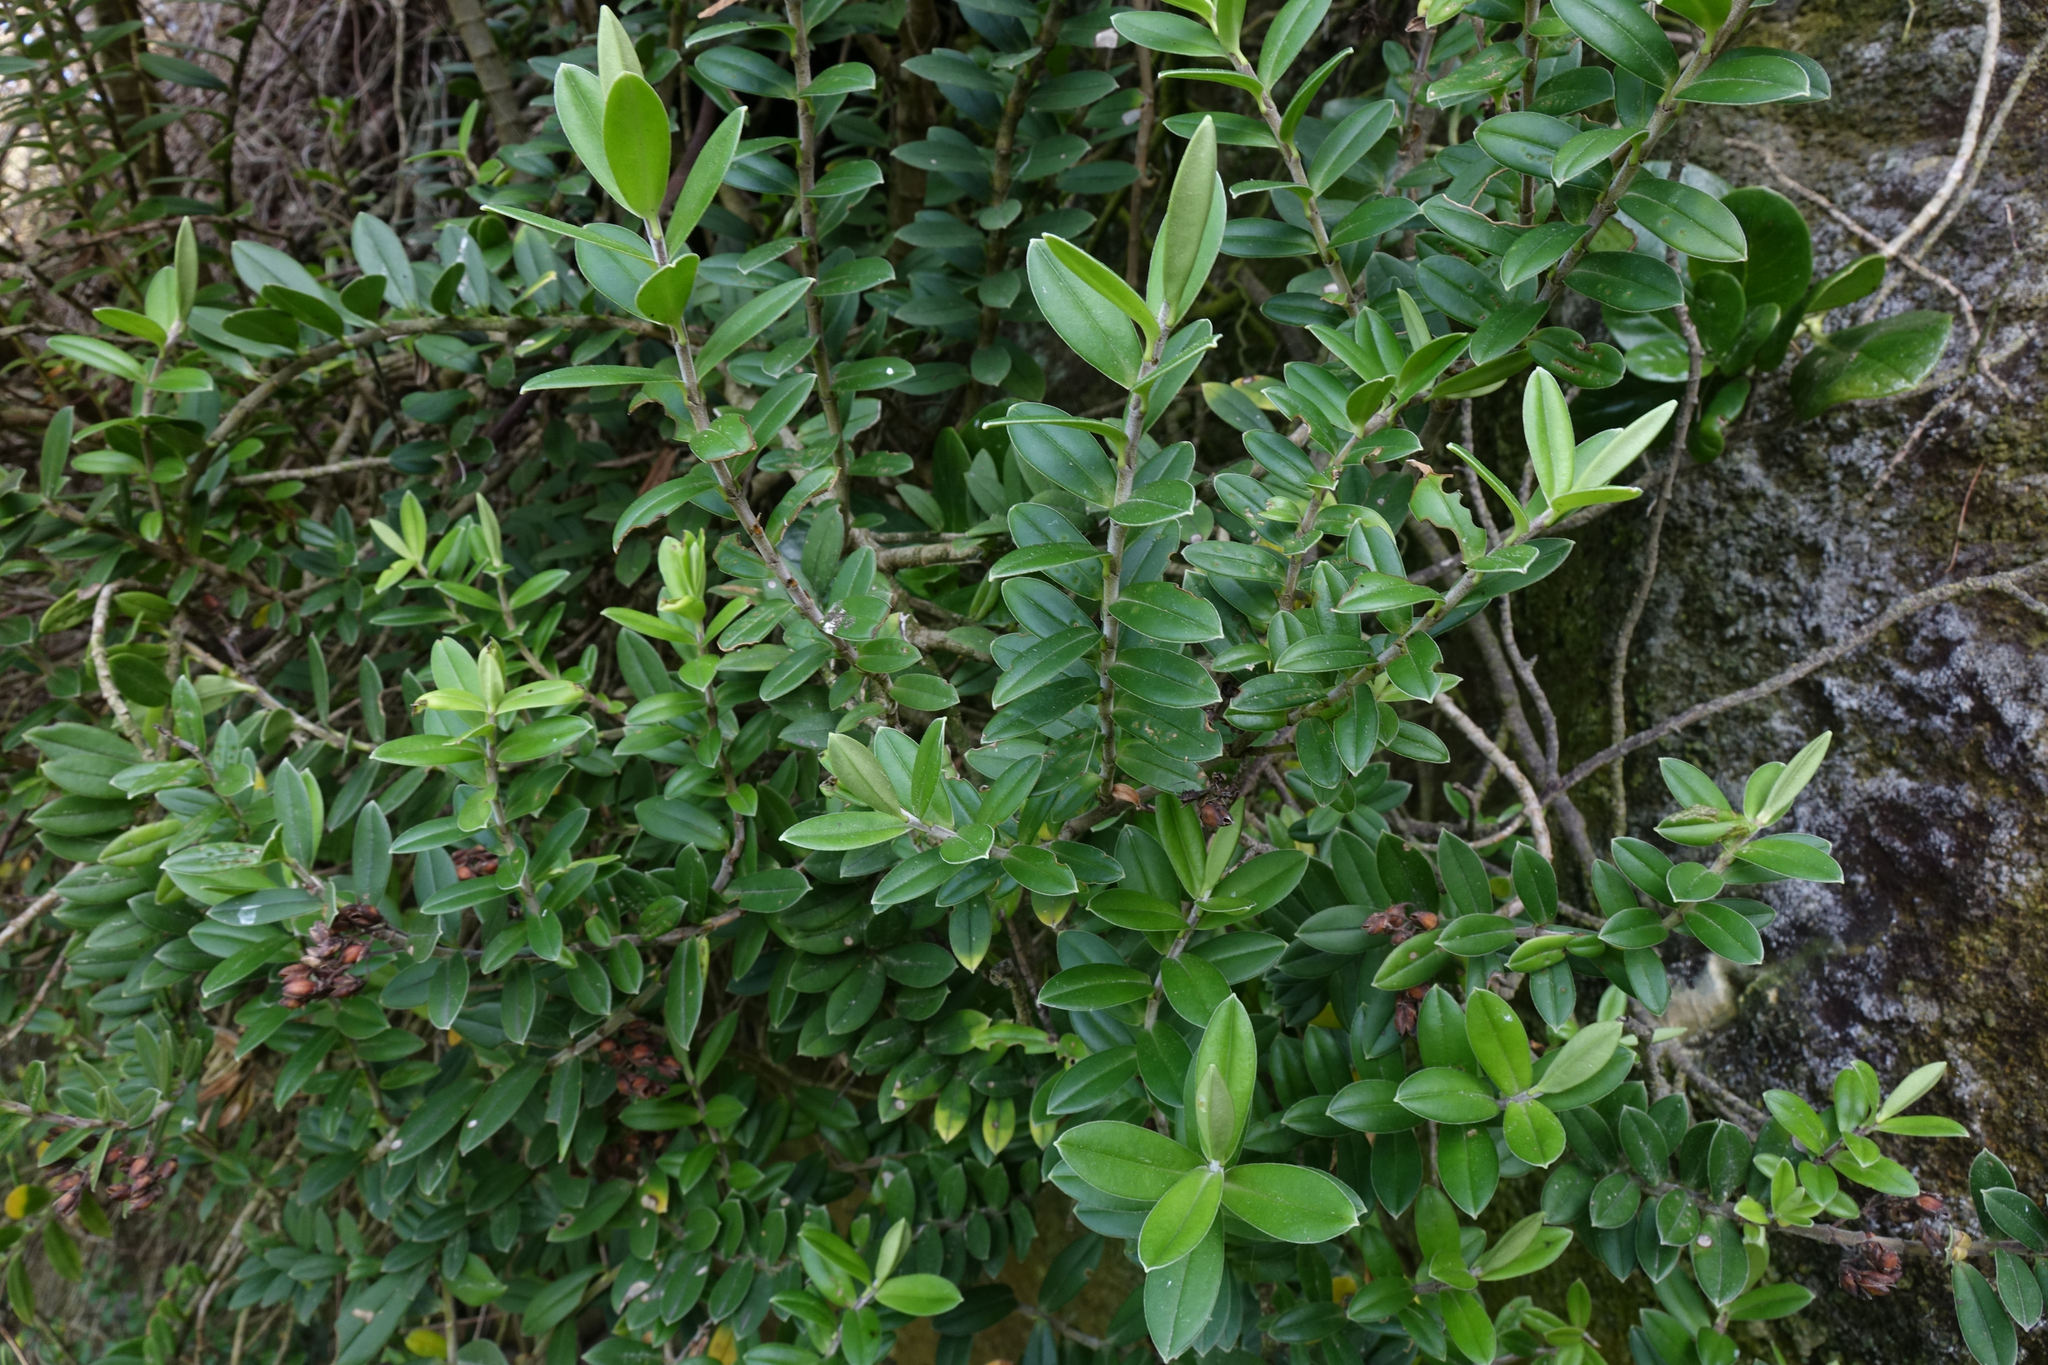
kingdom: Plantae
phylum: Tracheophyta
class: Magnoliopsida
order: Lamiales
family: Plantaginaceae
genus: Veronica
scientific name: Veronica elliptica
